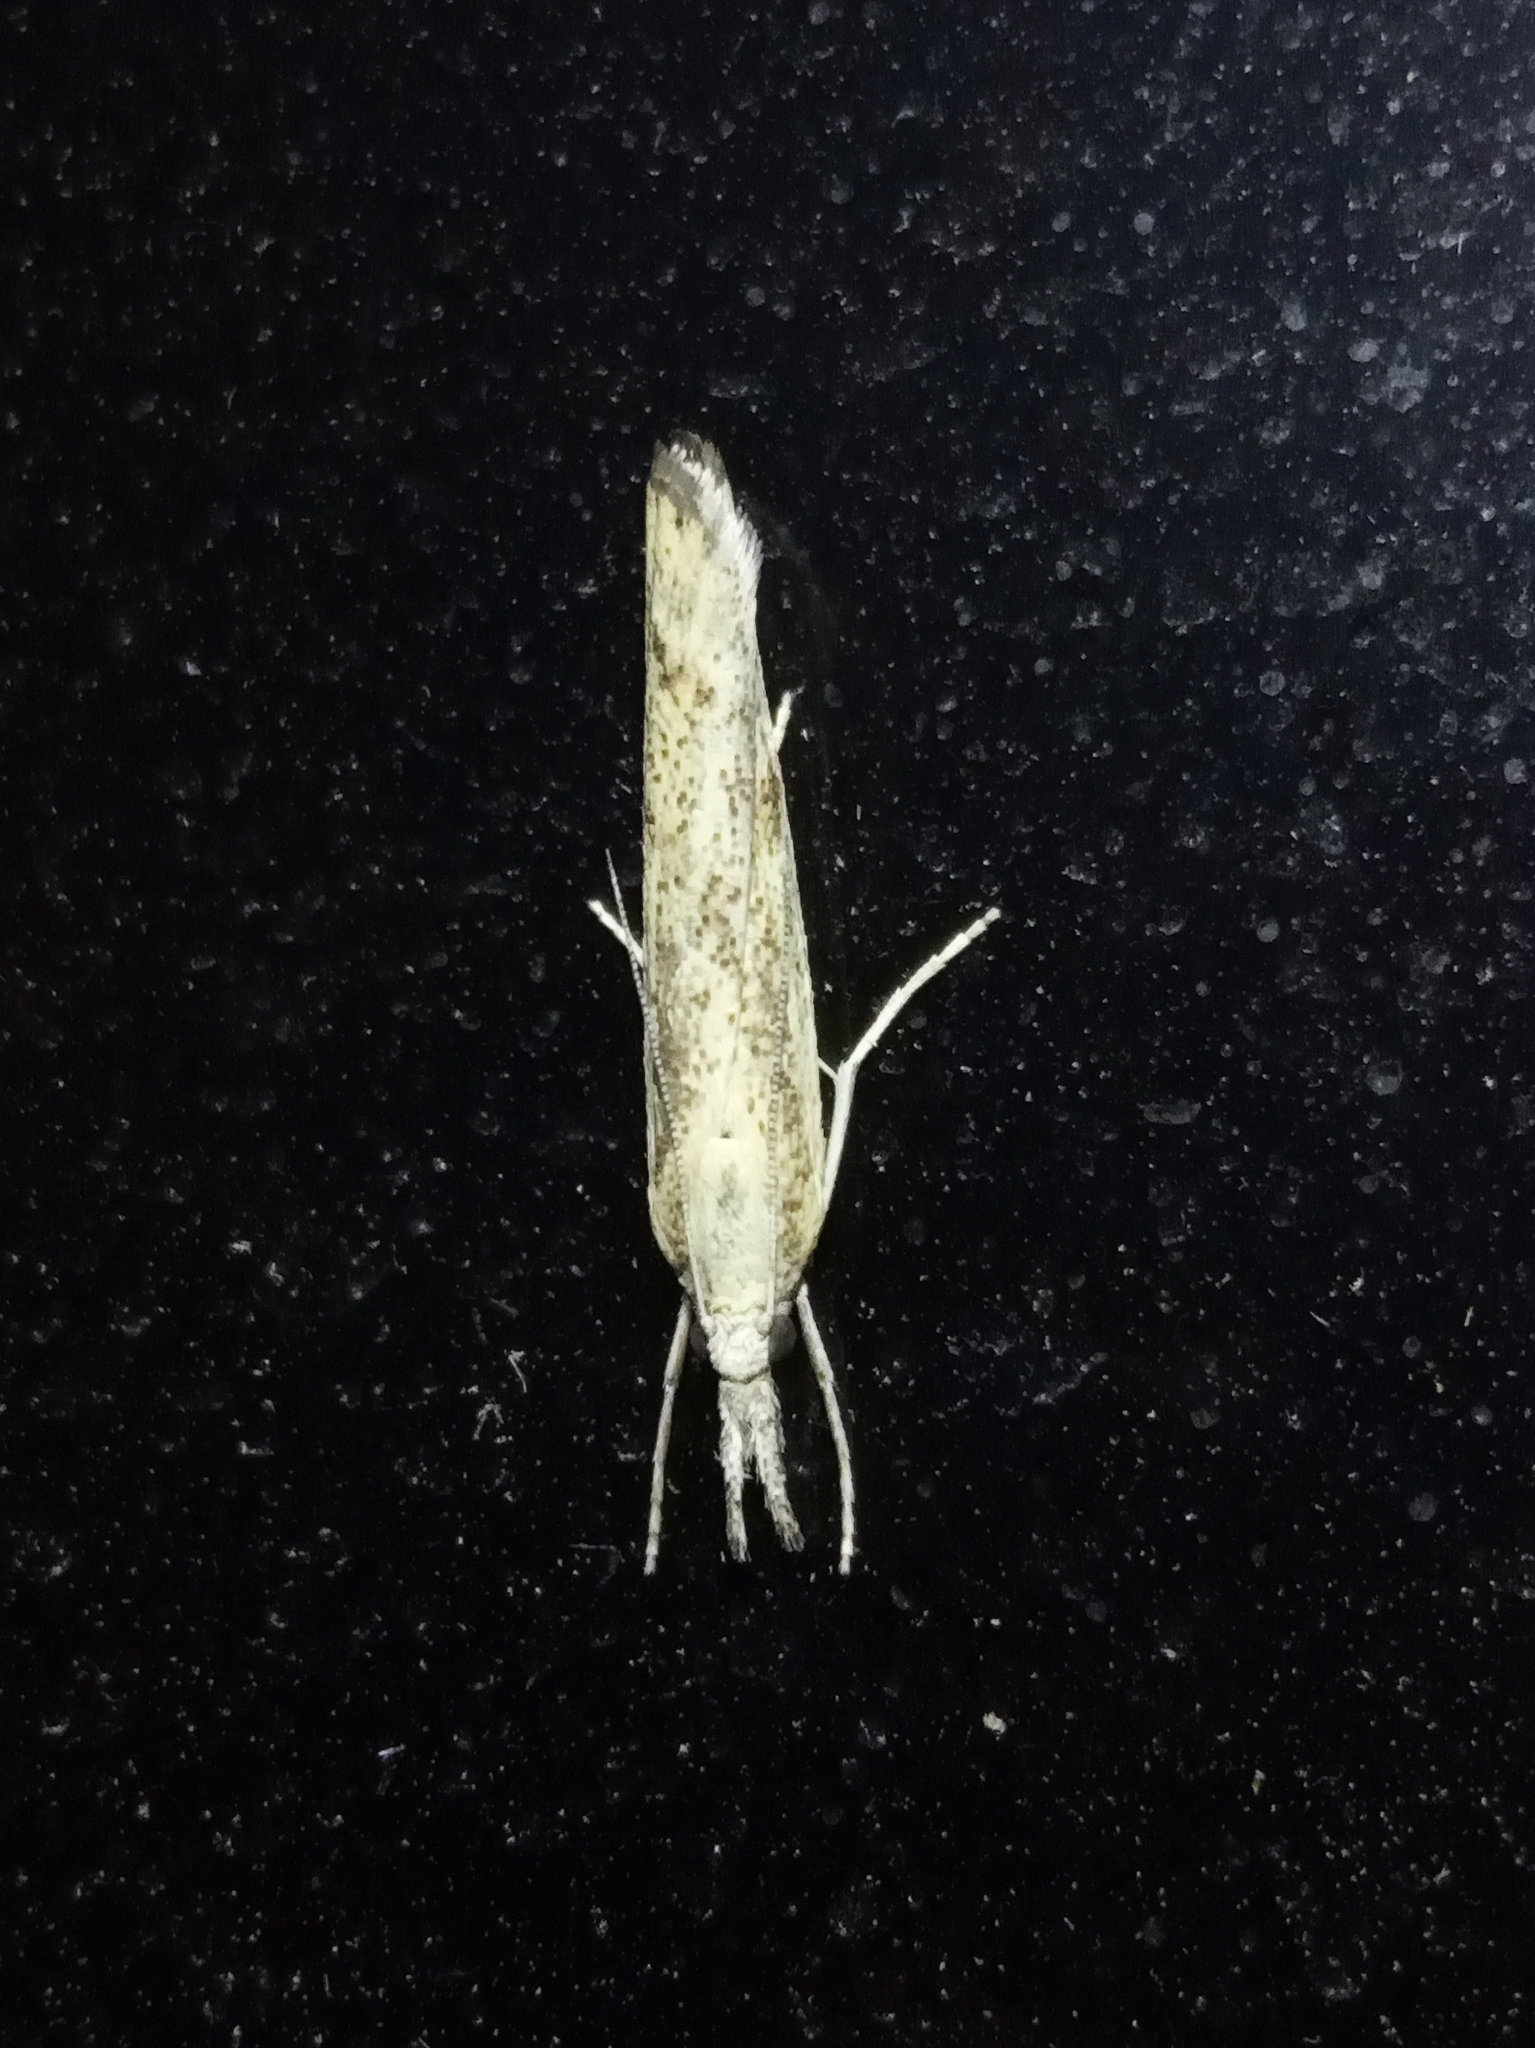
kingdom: Animalia
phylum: Arthropoda
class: Insecta
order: Lepidoptera
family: Crambidae
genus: Agriphila
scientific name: Agriphila
